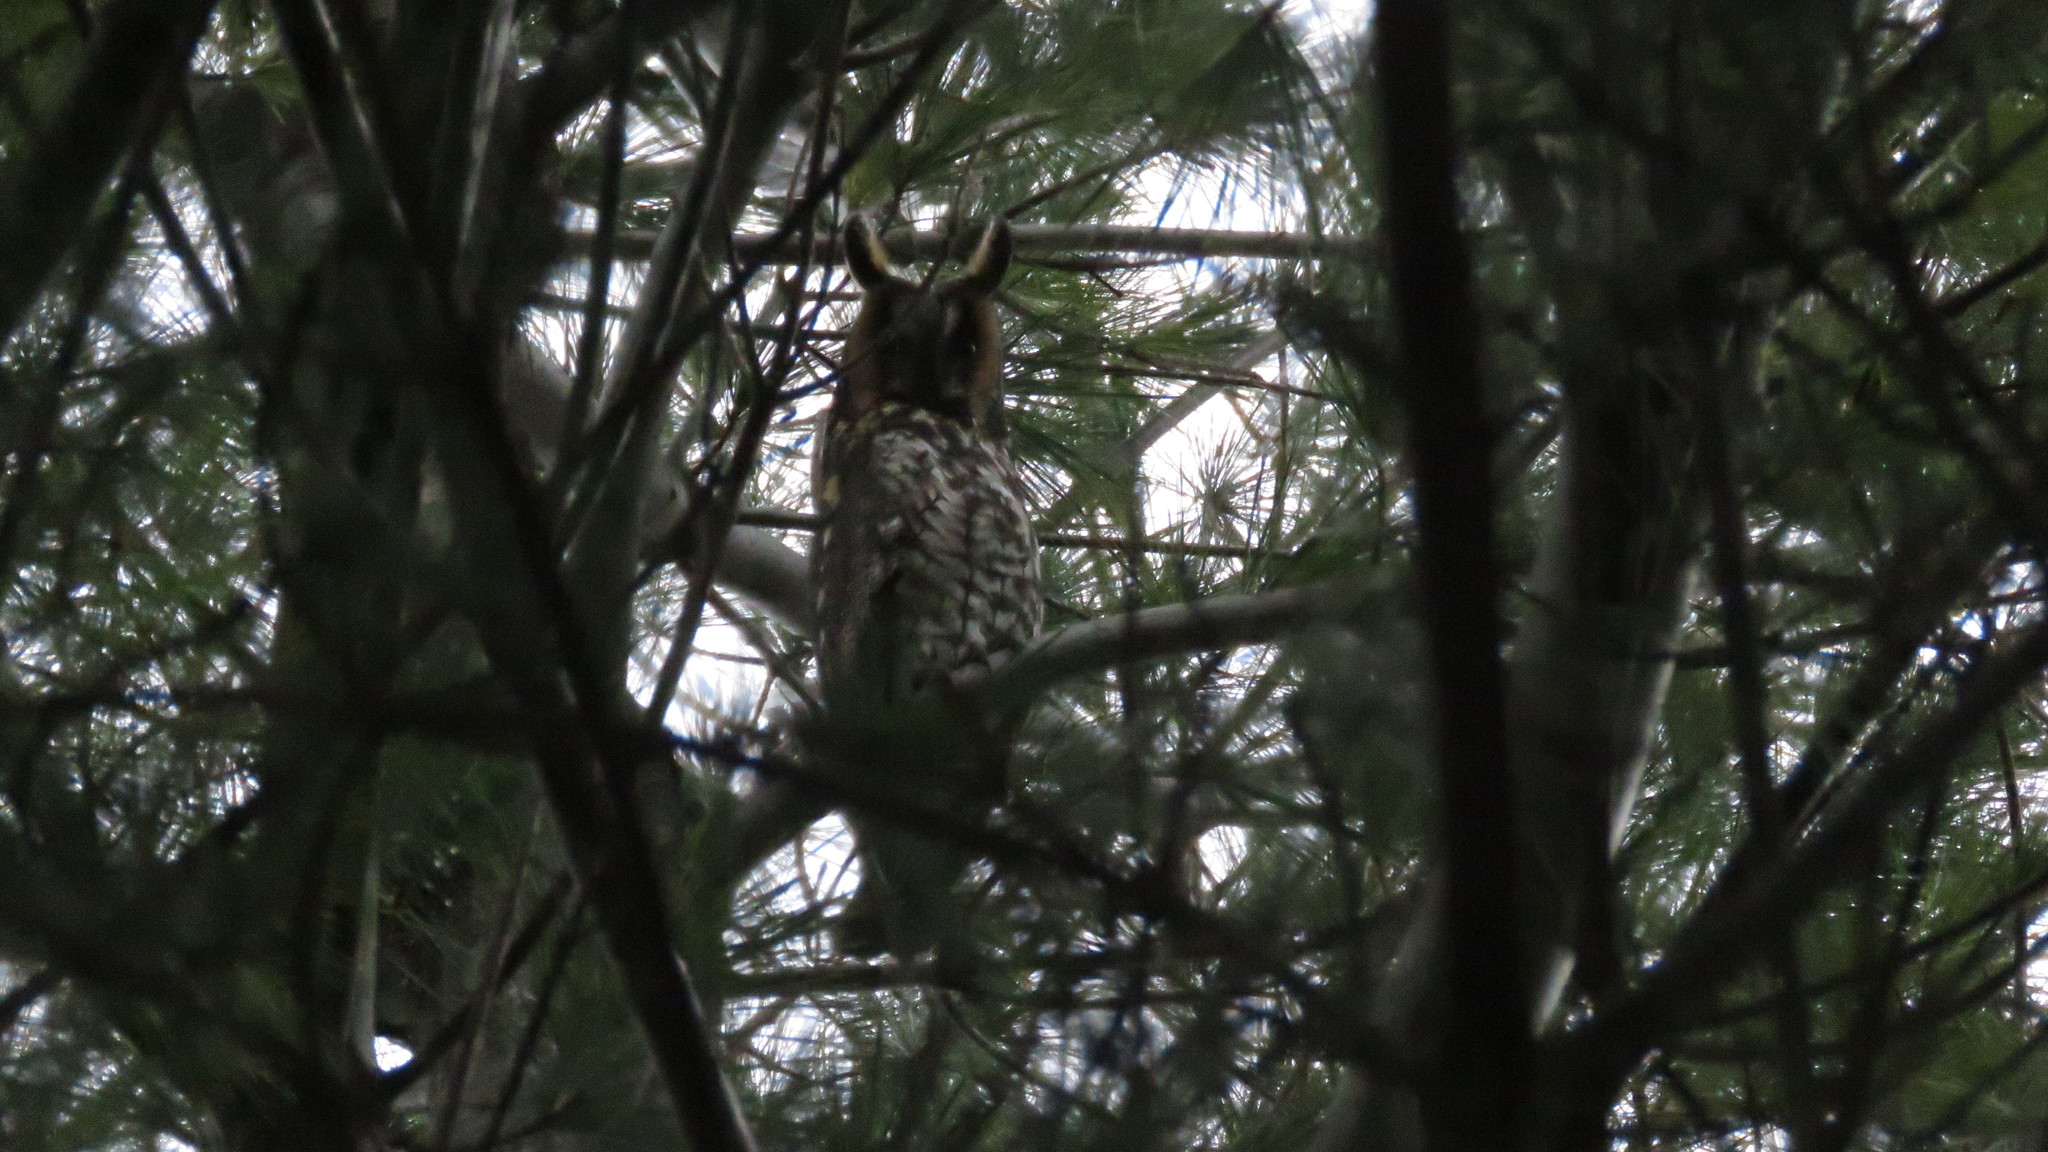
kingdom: Animalia
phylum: Chordata
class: Aves
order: Strigiformes
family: Strigidae
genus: Asio
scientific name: Asio otus
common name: Long-eared owl
